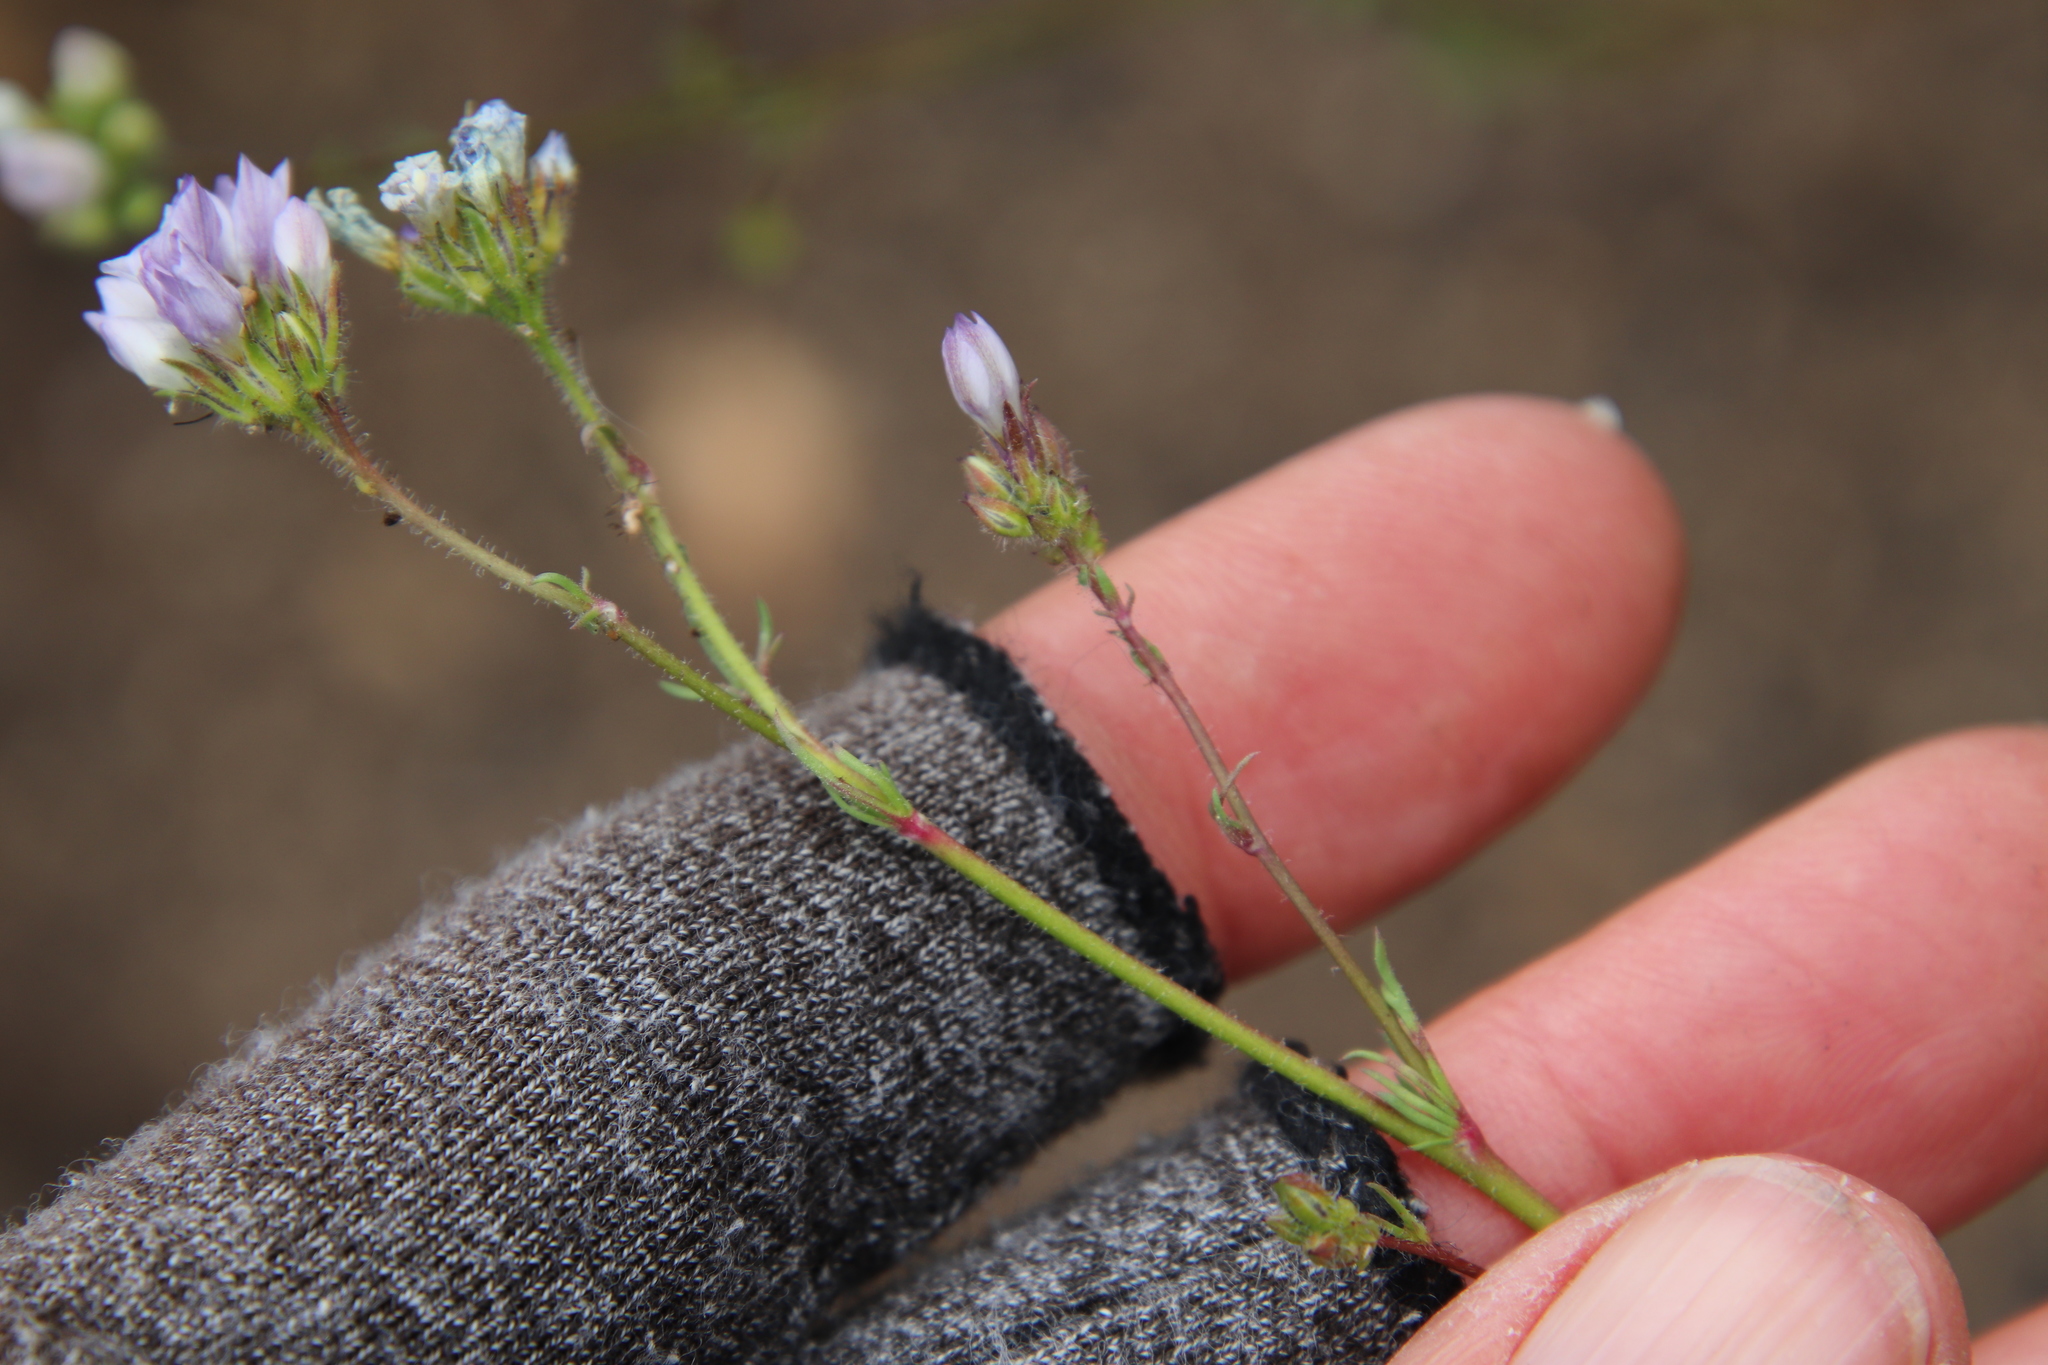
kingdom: Plantae
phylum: Tracheophyta
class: Magnoliopsida
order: Ericales
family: Polemoniaceae
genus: Gilia
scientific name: Gilia angelensis
